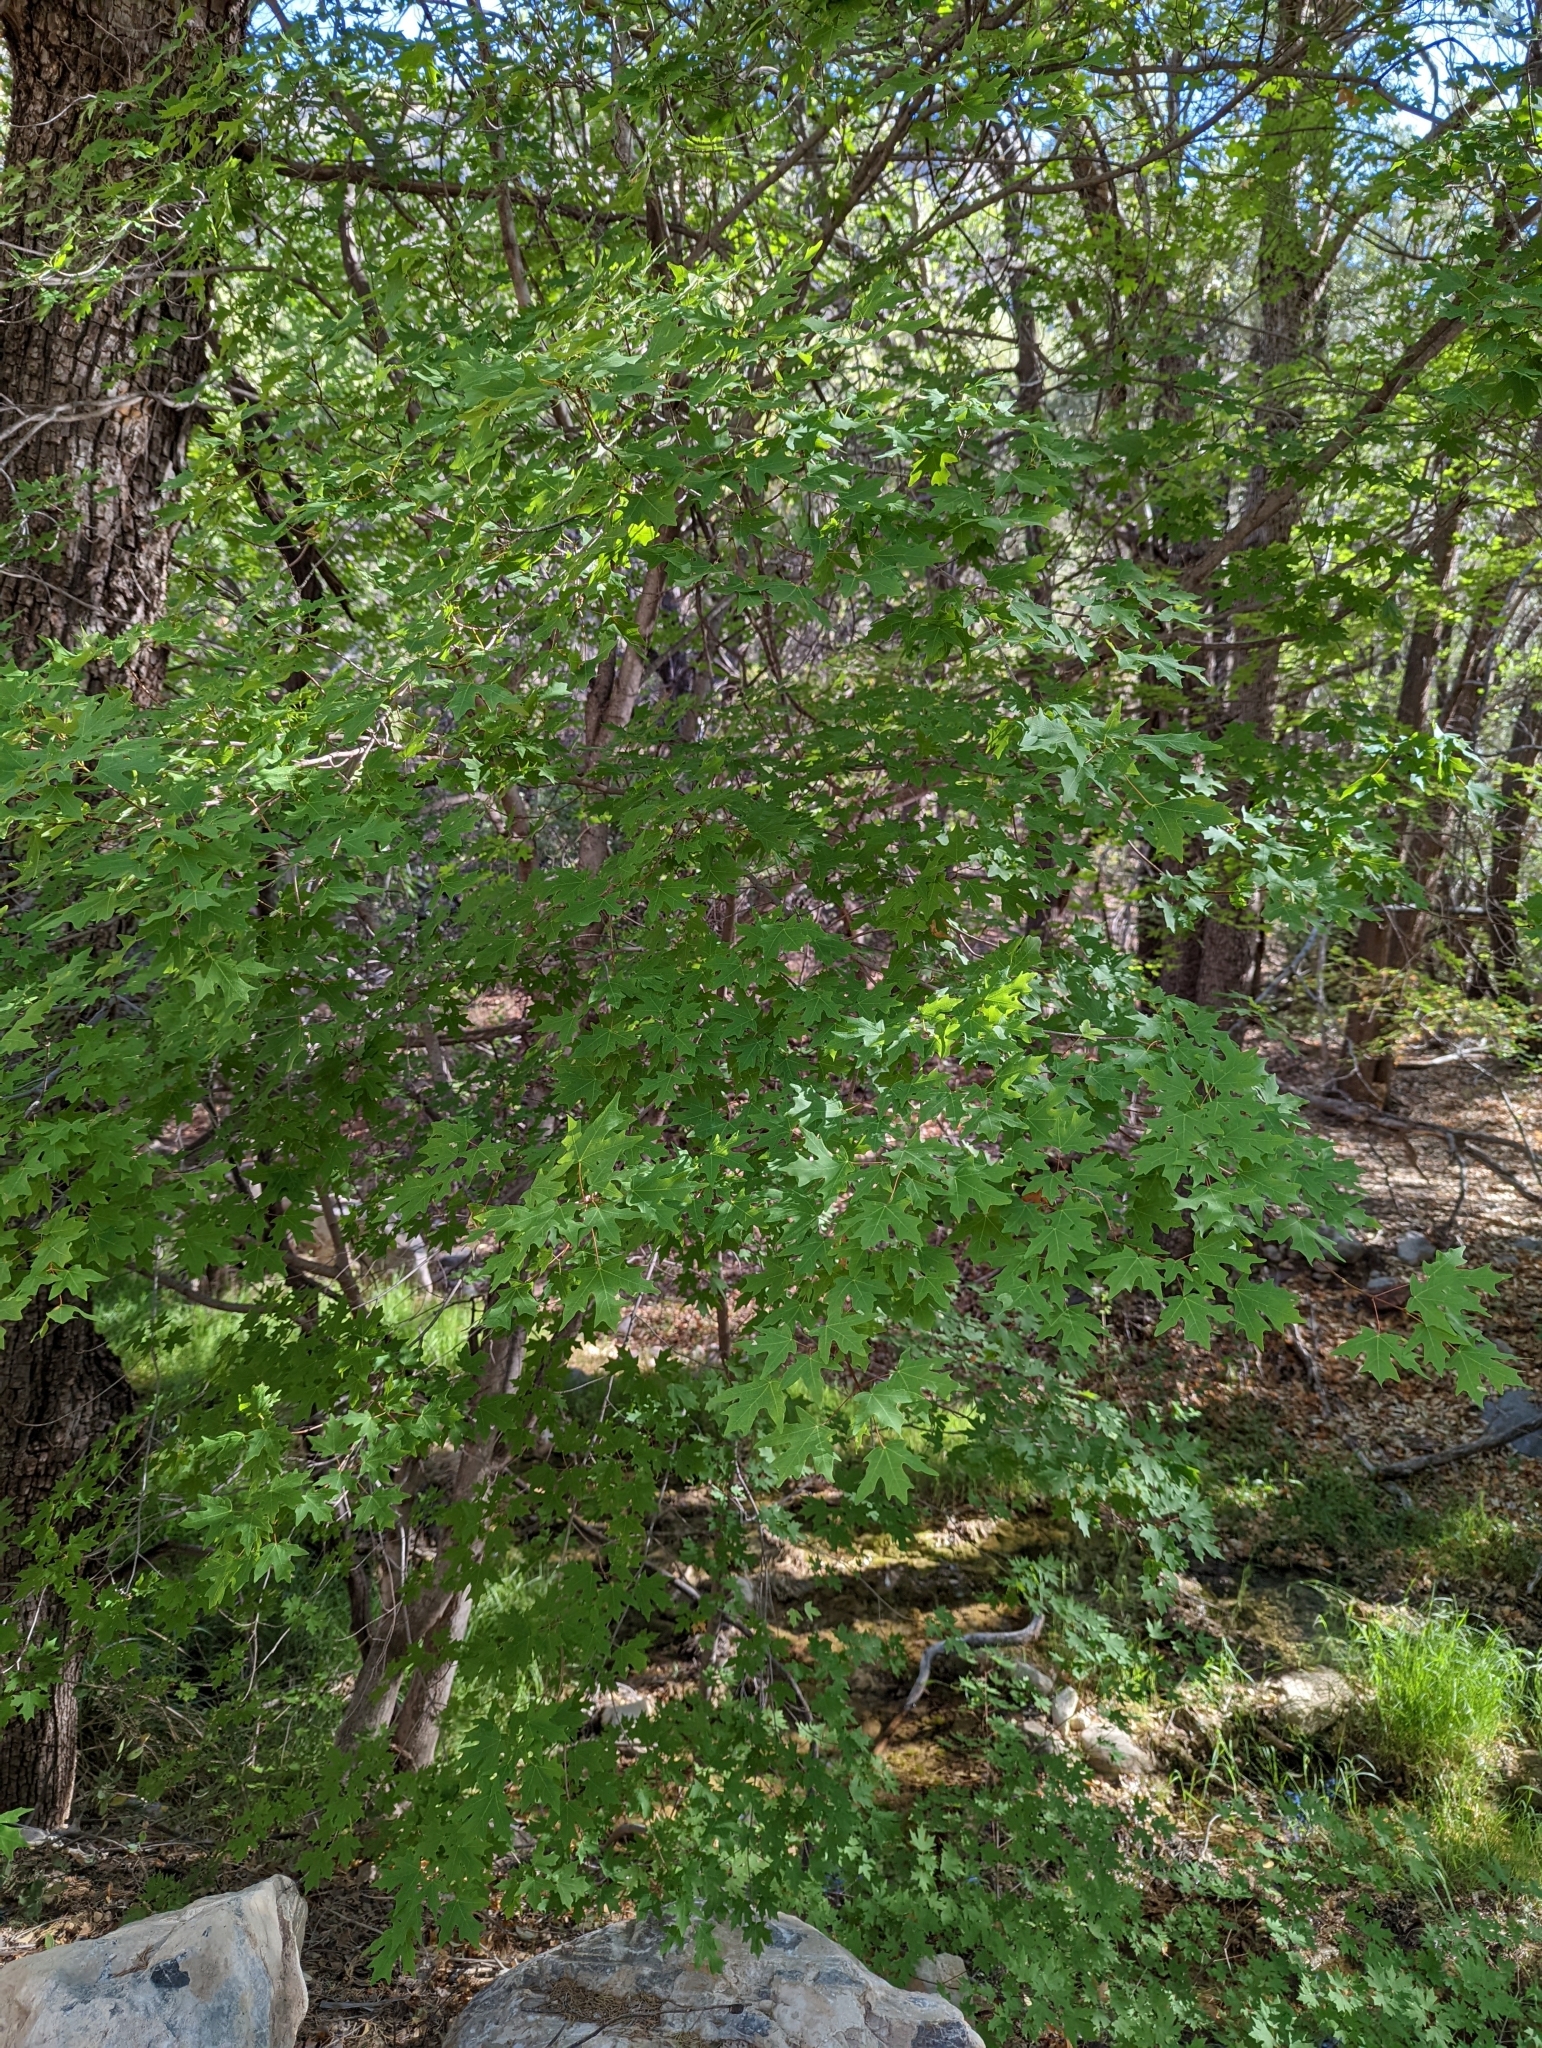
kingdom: Plantae
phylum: Tracheophyta
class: Magnoliopsida
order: Sapindales
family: Sapindaceae
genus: Acer
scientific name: Acer grandidentatum
